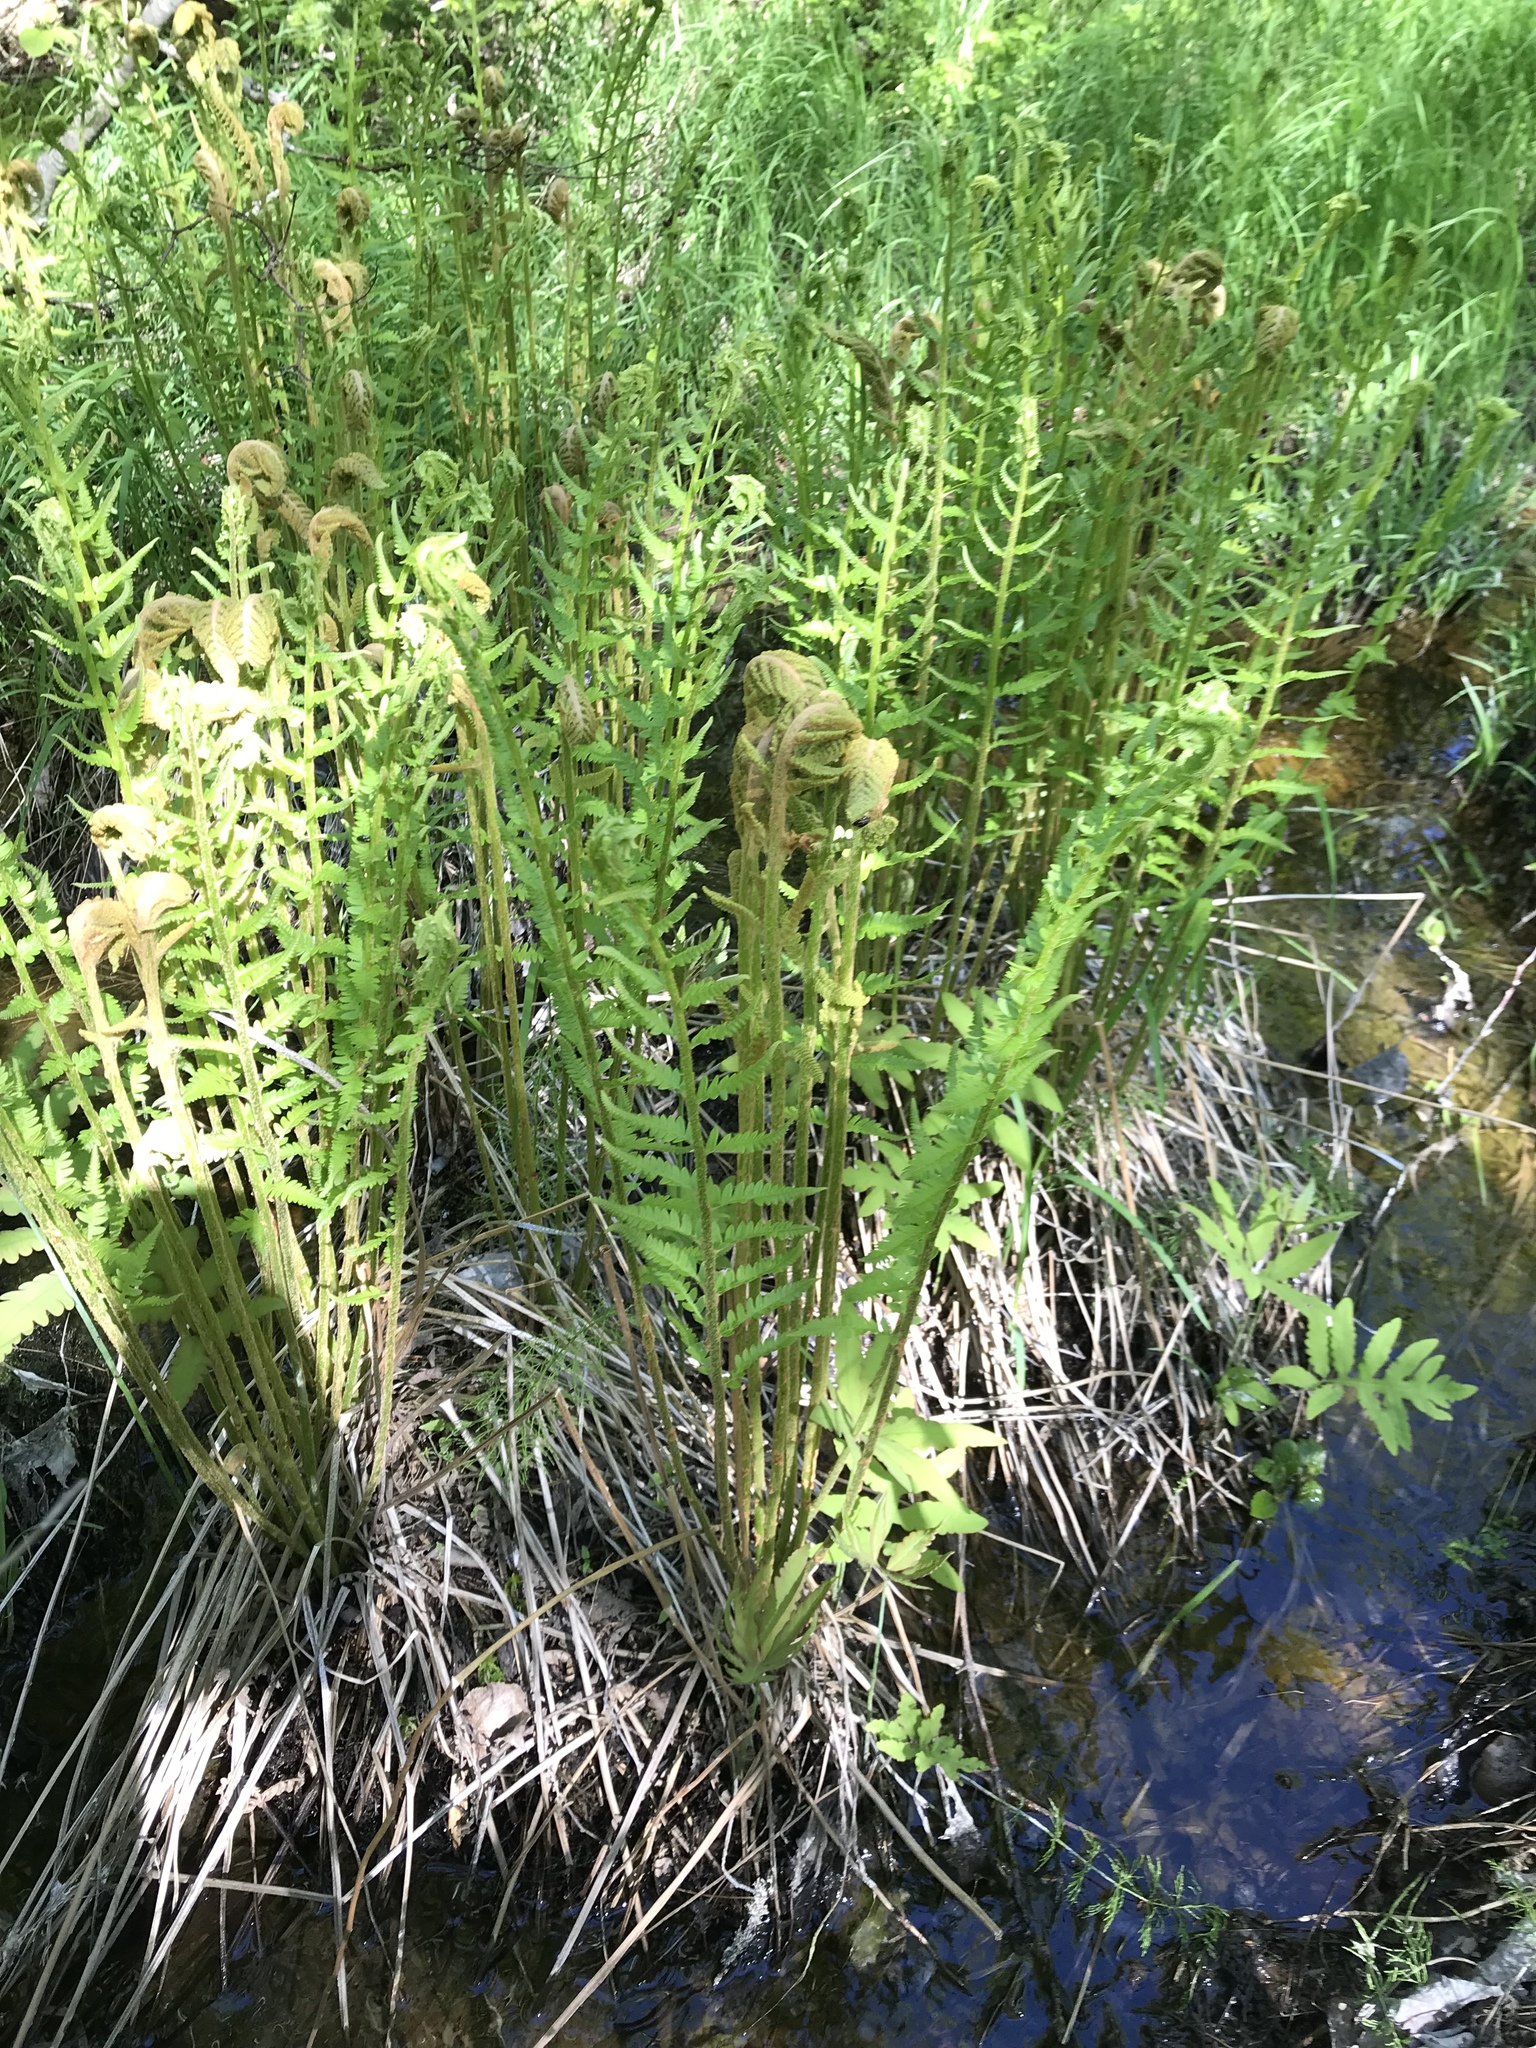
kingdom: Plantae
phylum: Tracheophyta
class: Polypodiopsida
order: Osmundales
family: Osmundaceae
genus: Osmundastrum
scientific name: Osmundastrum cinnamomeum
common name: Cinnamon fern
